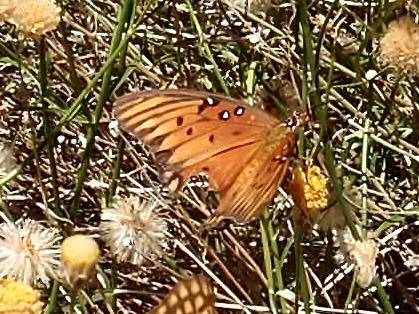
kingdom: Animalia
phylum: Arthropoda
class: Insecta
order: Lepidoptera
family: Nymphalidae
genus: Dione
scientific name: Dione vanillae
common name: Gulf fritillary
